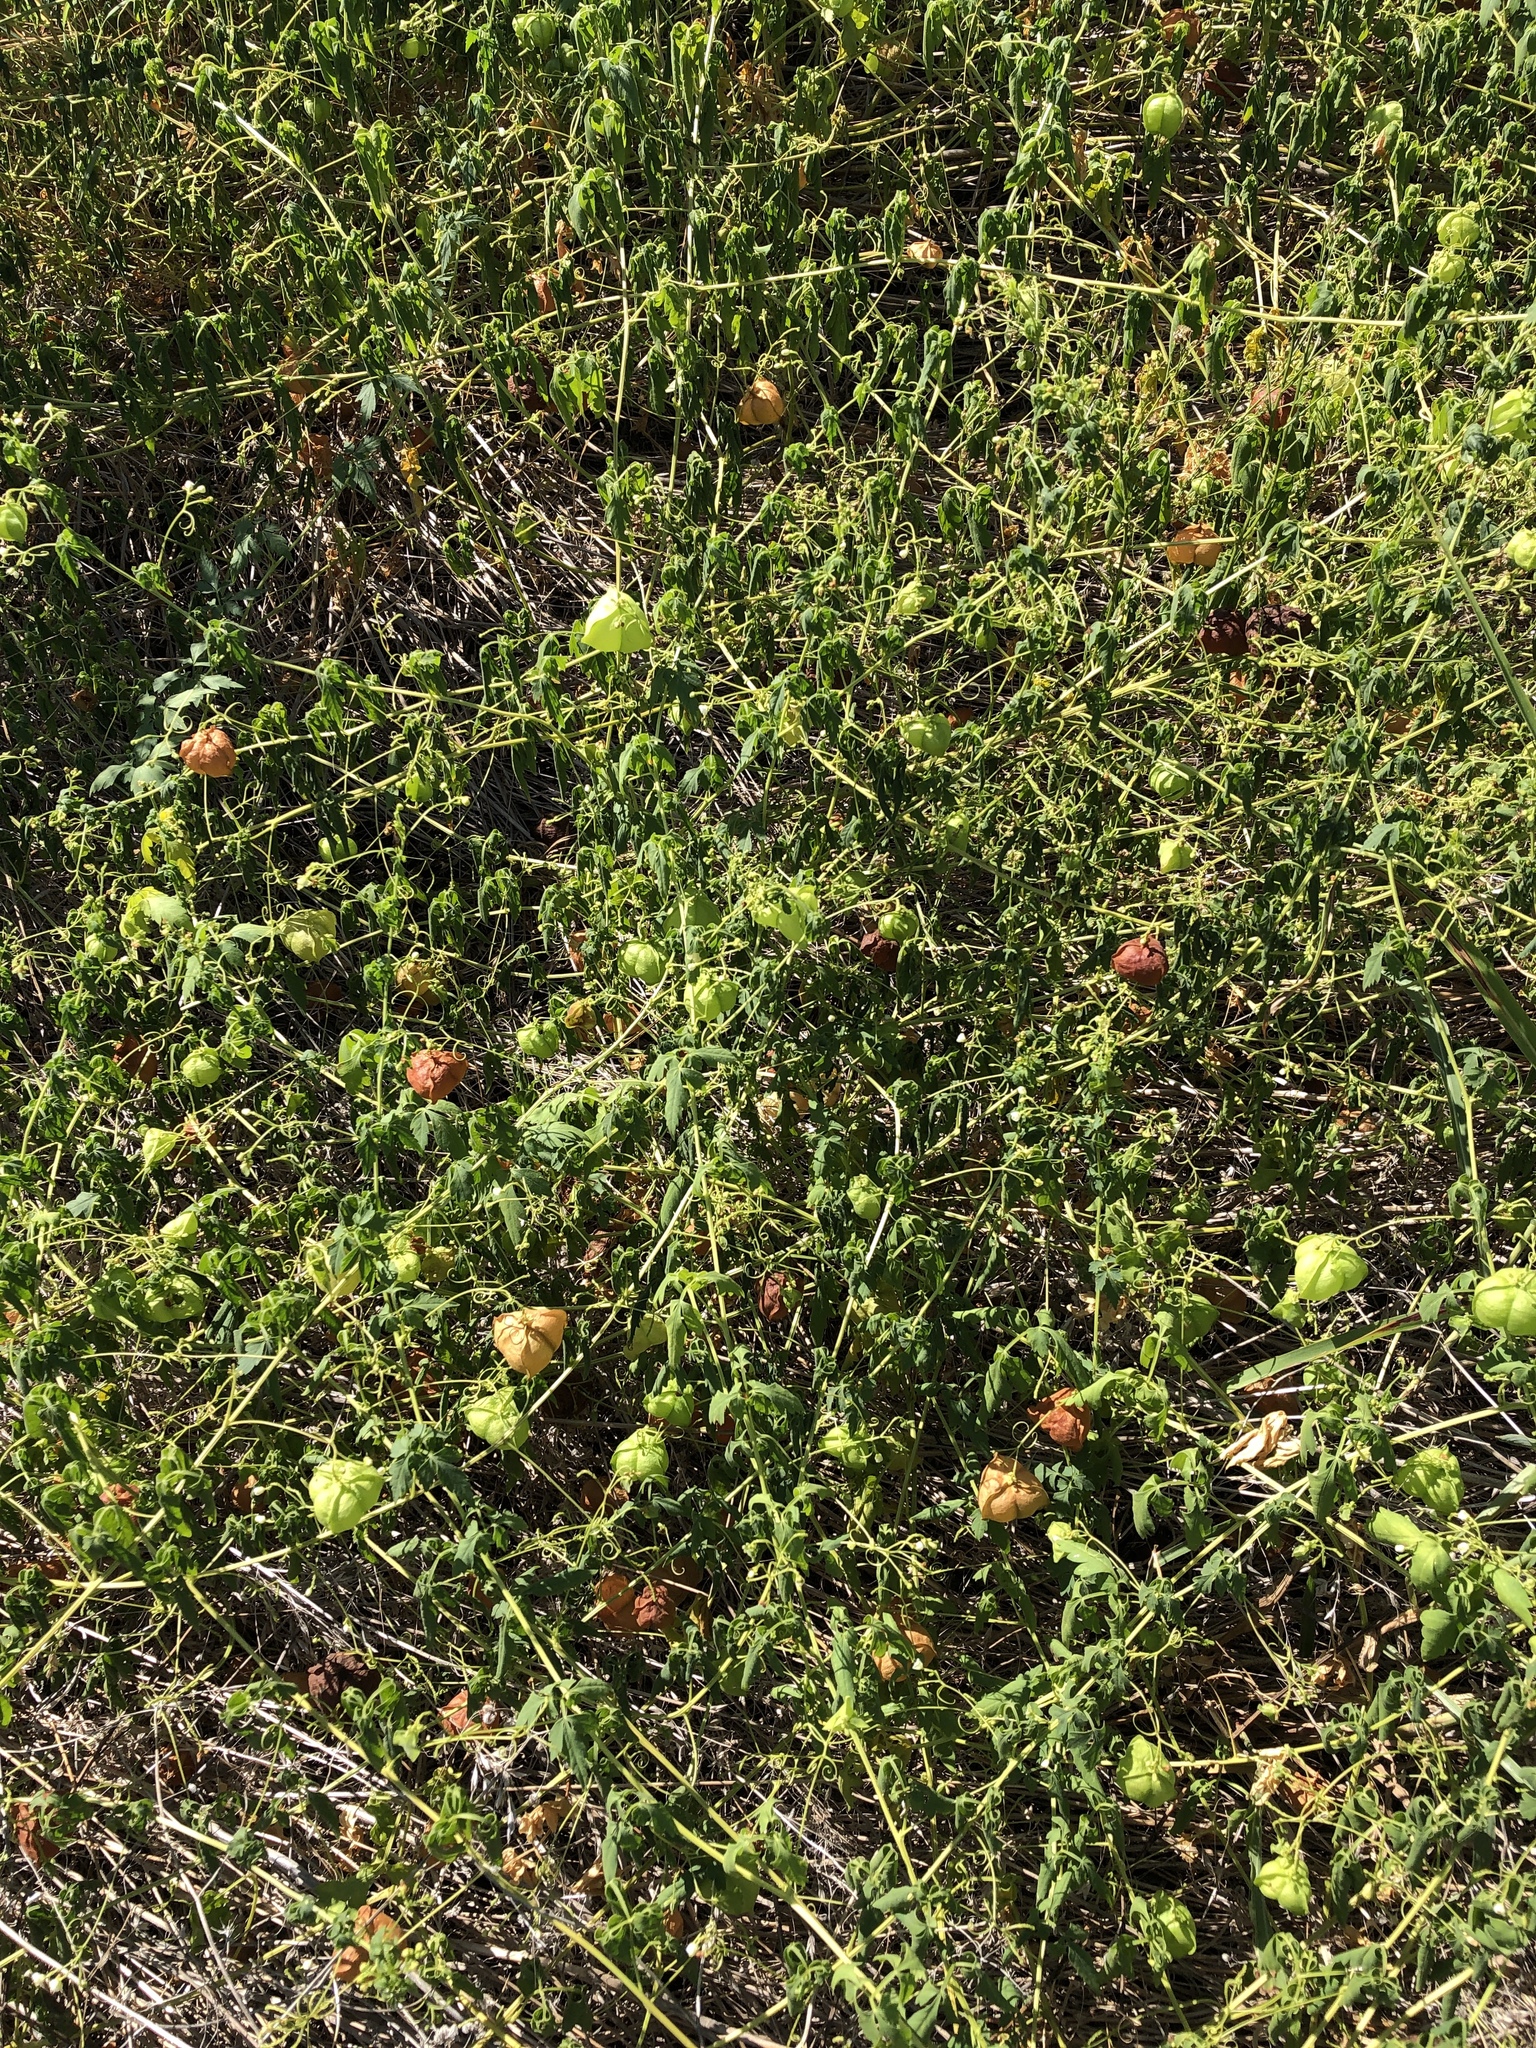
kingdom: Plantae
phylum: Tracheophyta
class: Magnoliopsida
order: Sapindales
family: Sapindaceae
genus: Cardiospermum
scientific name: Cardiospermum halicacabum
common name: Balloon vine
